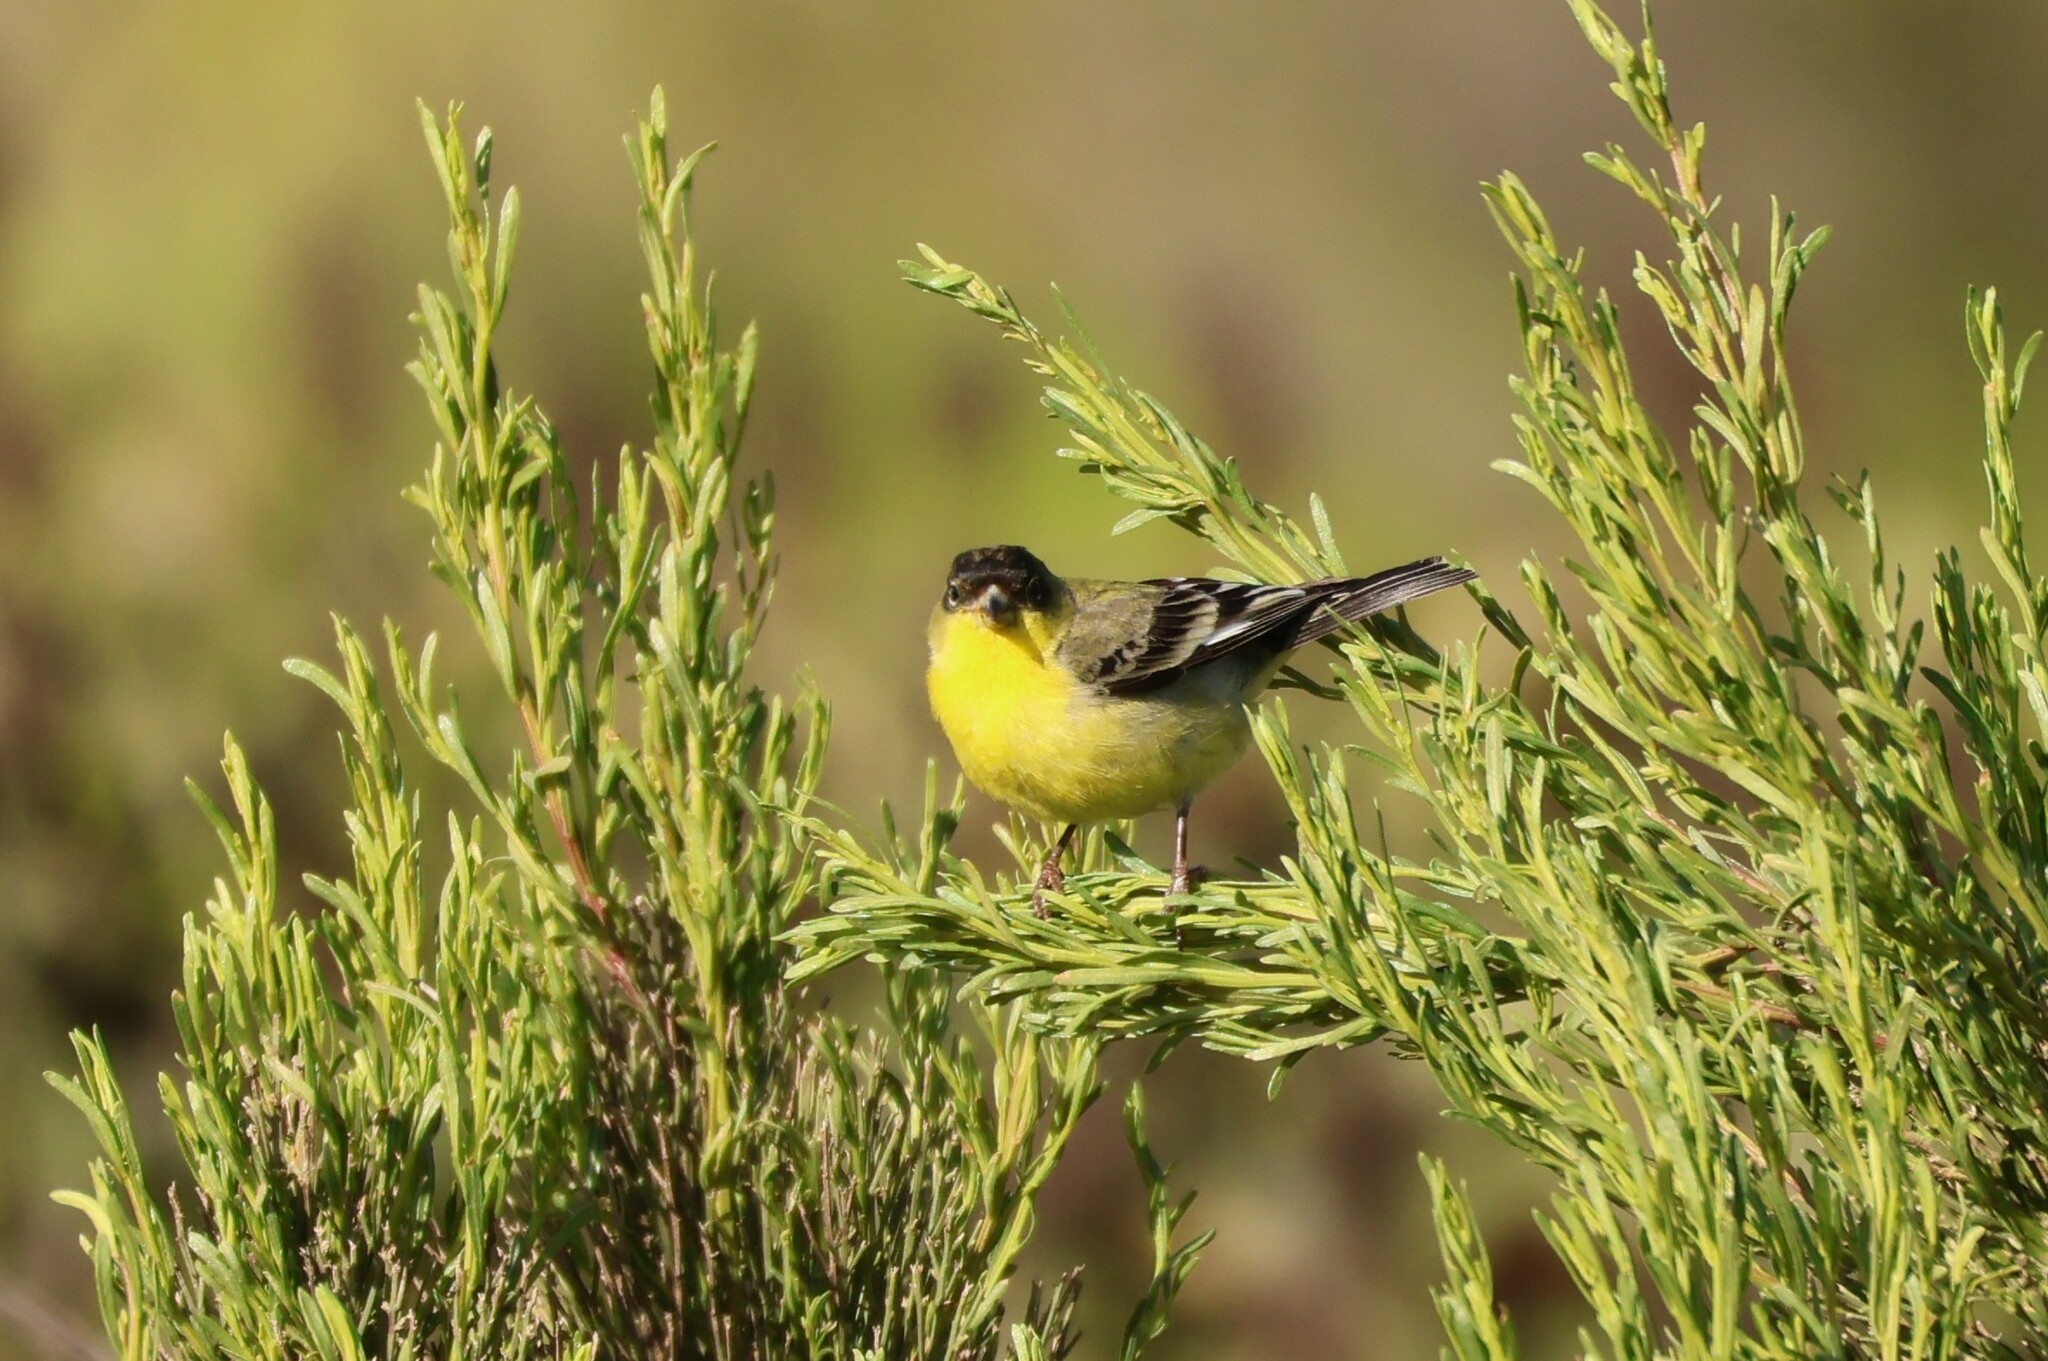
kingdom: Animalia
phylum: Chordata
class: Aves
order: Passeriformes
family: Fringillidae
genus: Spinus
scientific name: Spinus psaltria
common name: Lesser goldfinch
